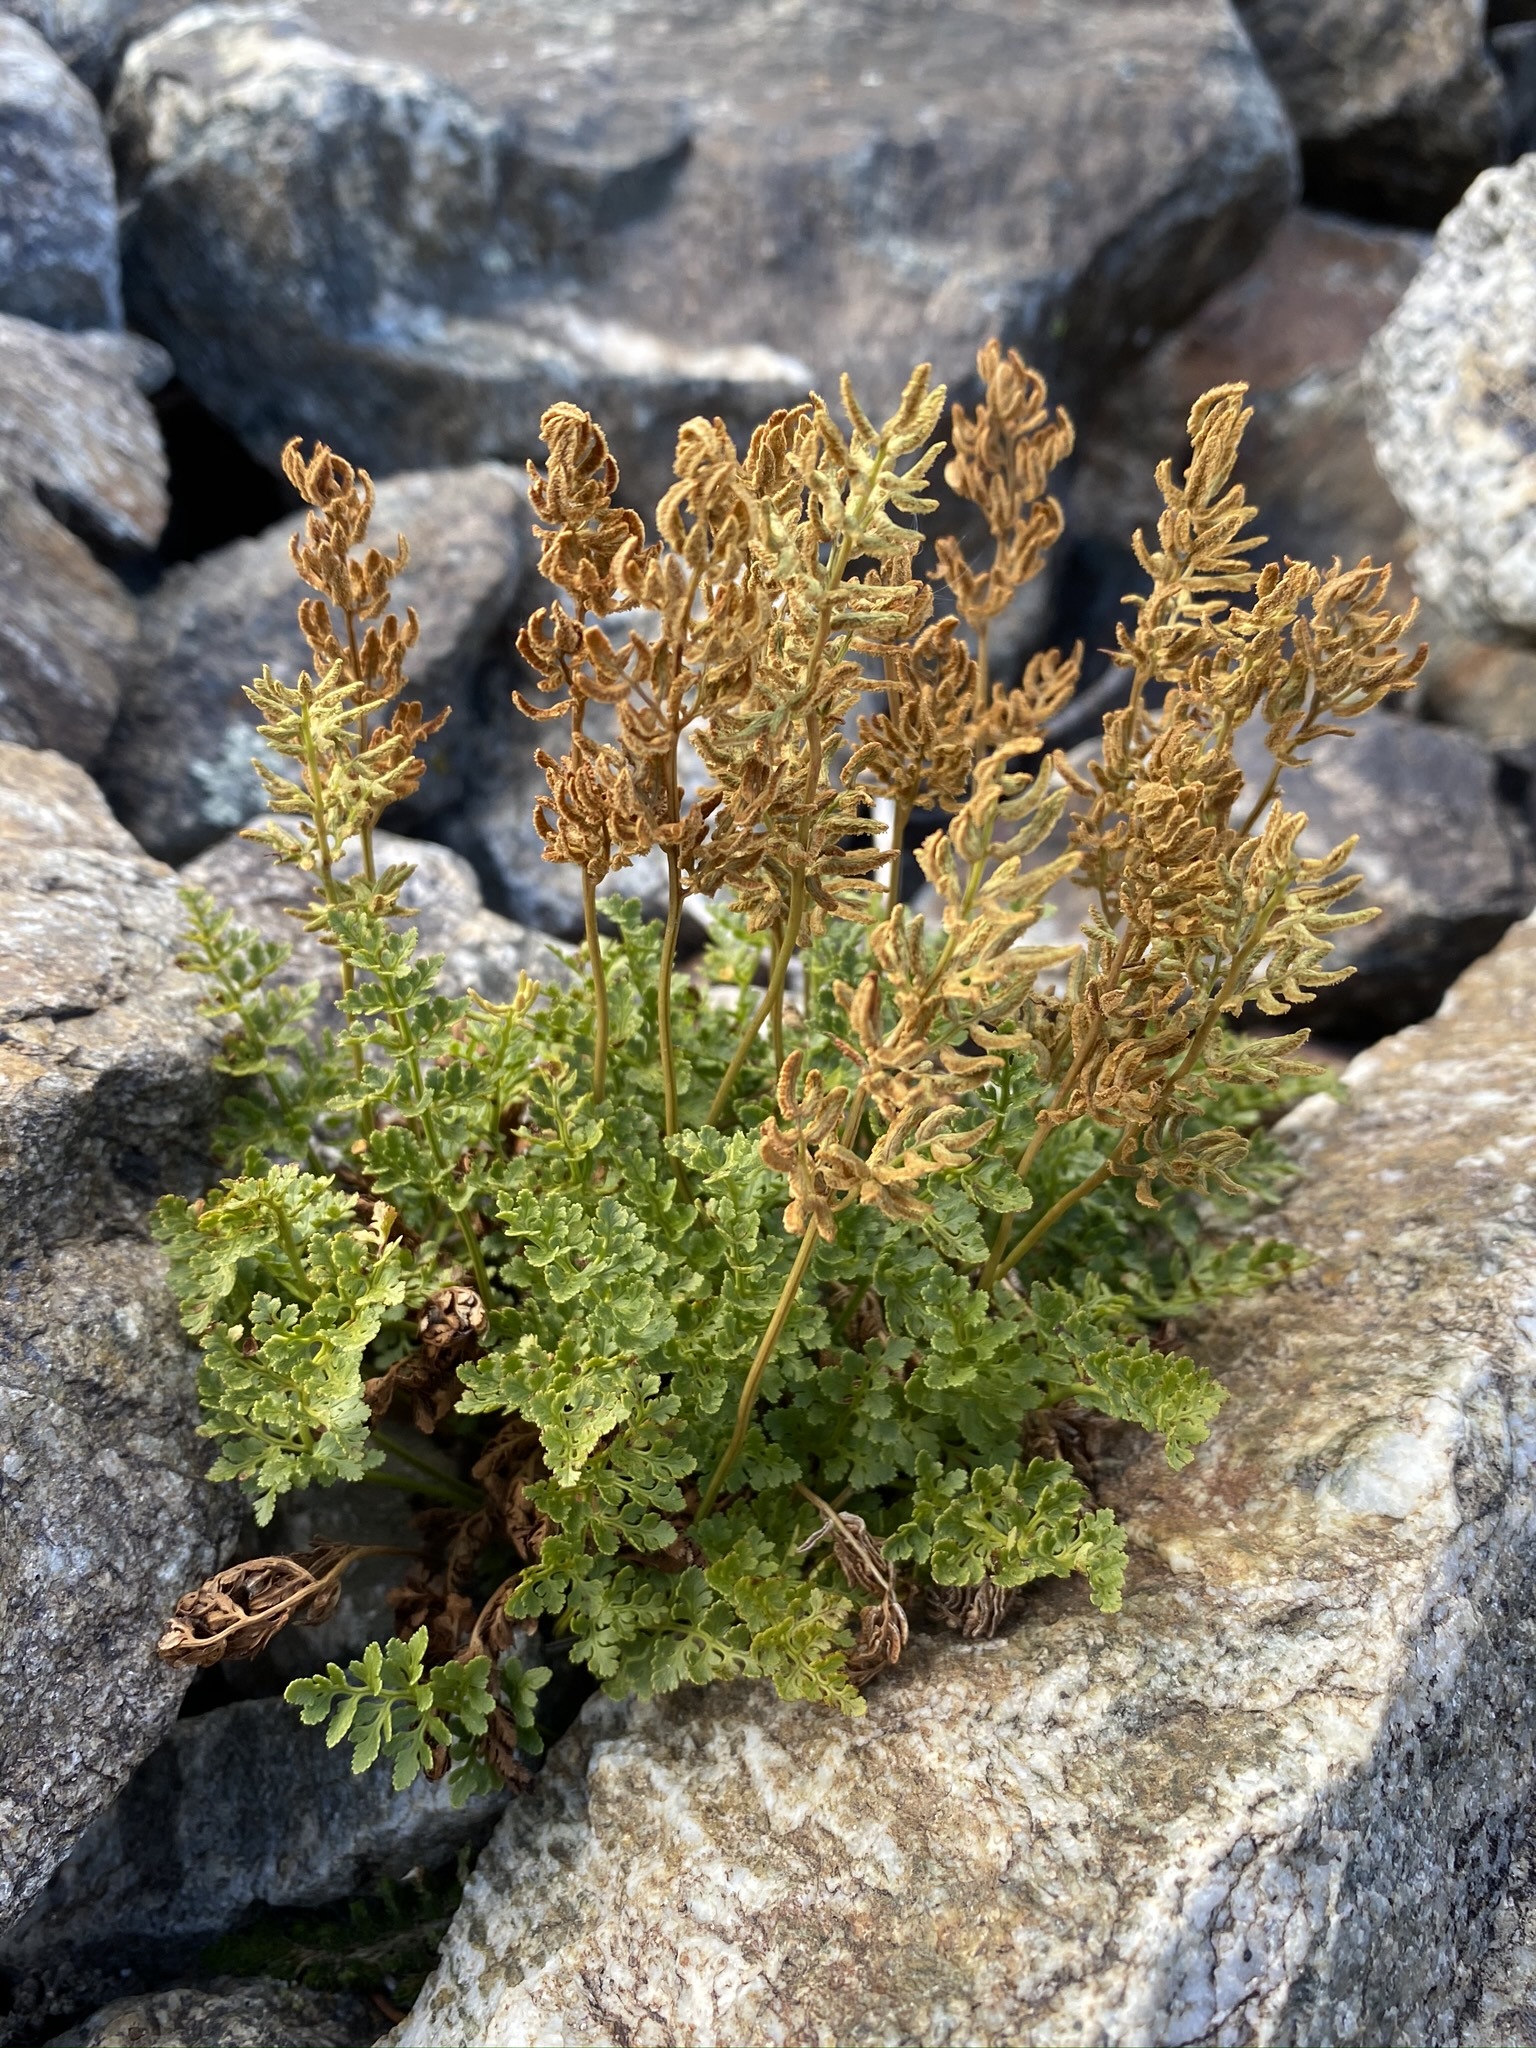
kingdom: Plantae
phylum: Tracheophyta
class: Polypodiopsida
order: Polypodiales
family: Pteridaceae
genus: Cryptogramma
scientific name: Cryptogramma acrostichoides
